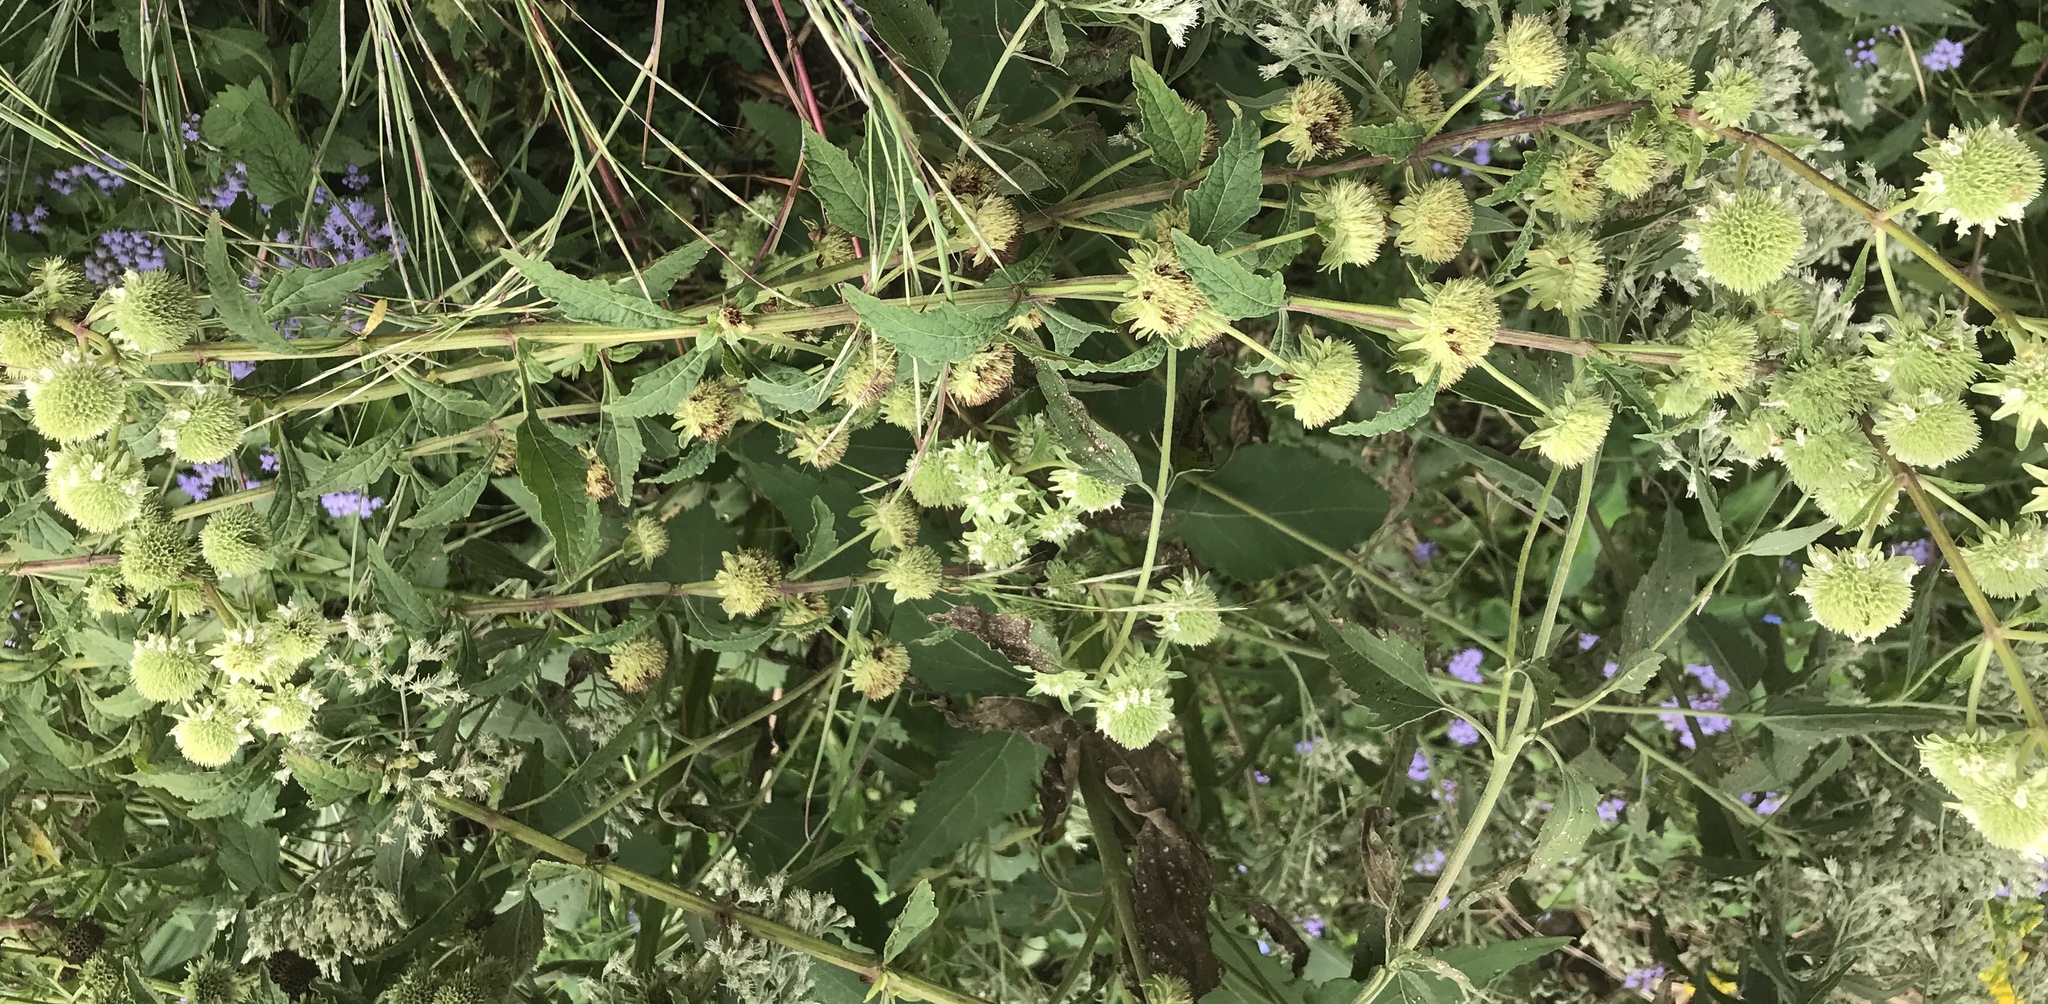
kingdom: Plantae
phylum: Tracheophyta
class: Magnoliopsida
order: Lamiales
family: Lamiaceae
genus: Hyptis
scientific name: Hyptis alata
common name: Cluster bush-mint
